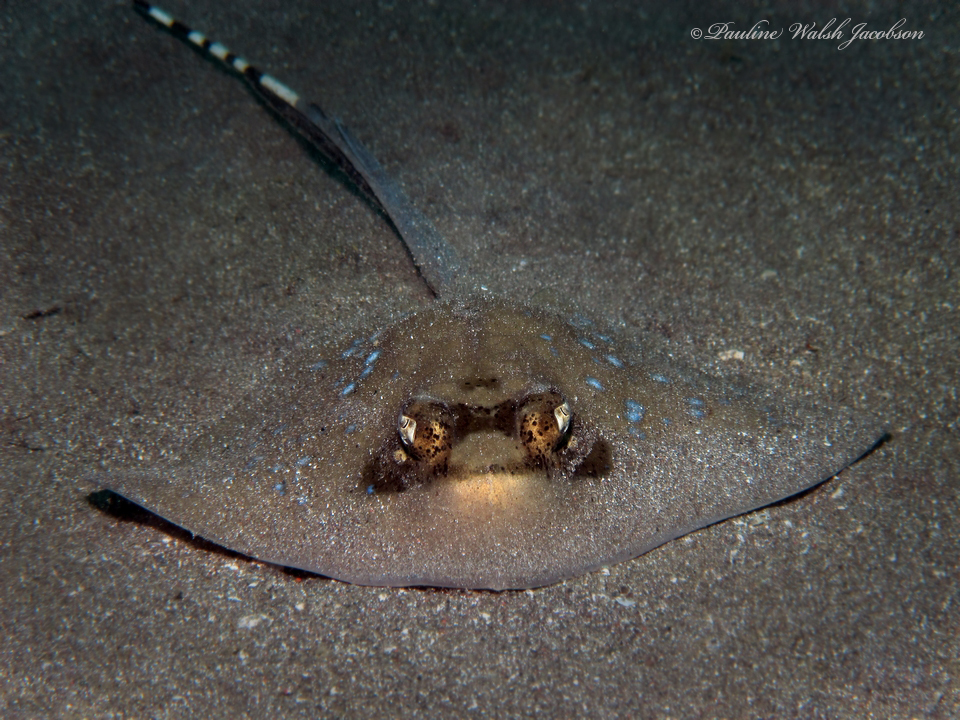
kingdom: Animalia
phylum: Chordata
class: Elasmobranchii
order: Myliobatiformes
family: Dasyatidae
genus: Neotrygon
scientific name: Neotrygon orientale
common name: Oriental bluespotted maskray
